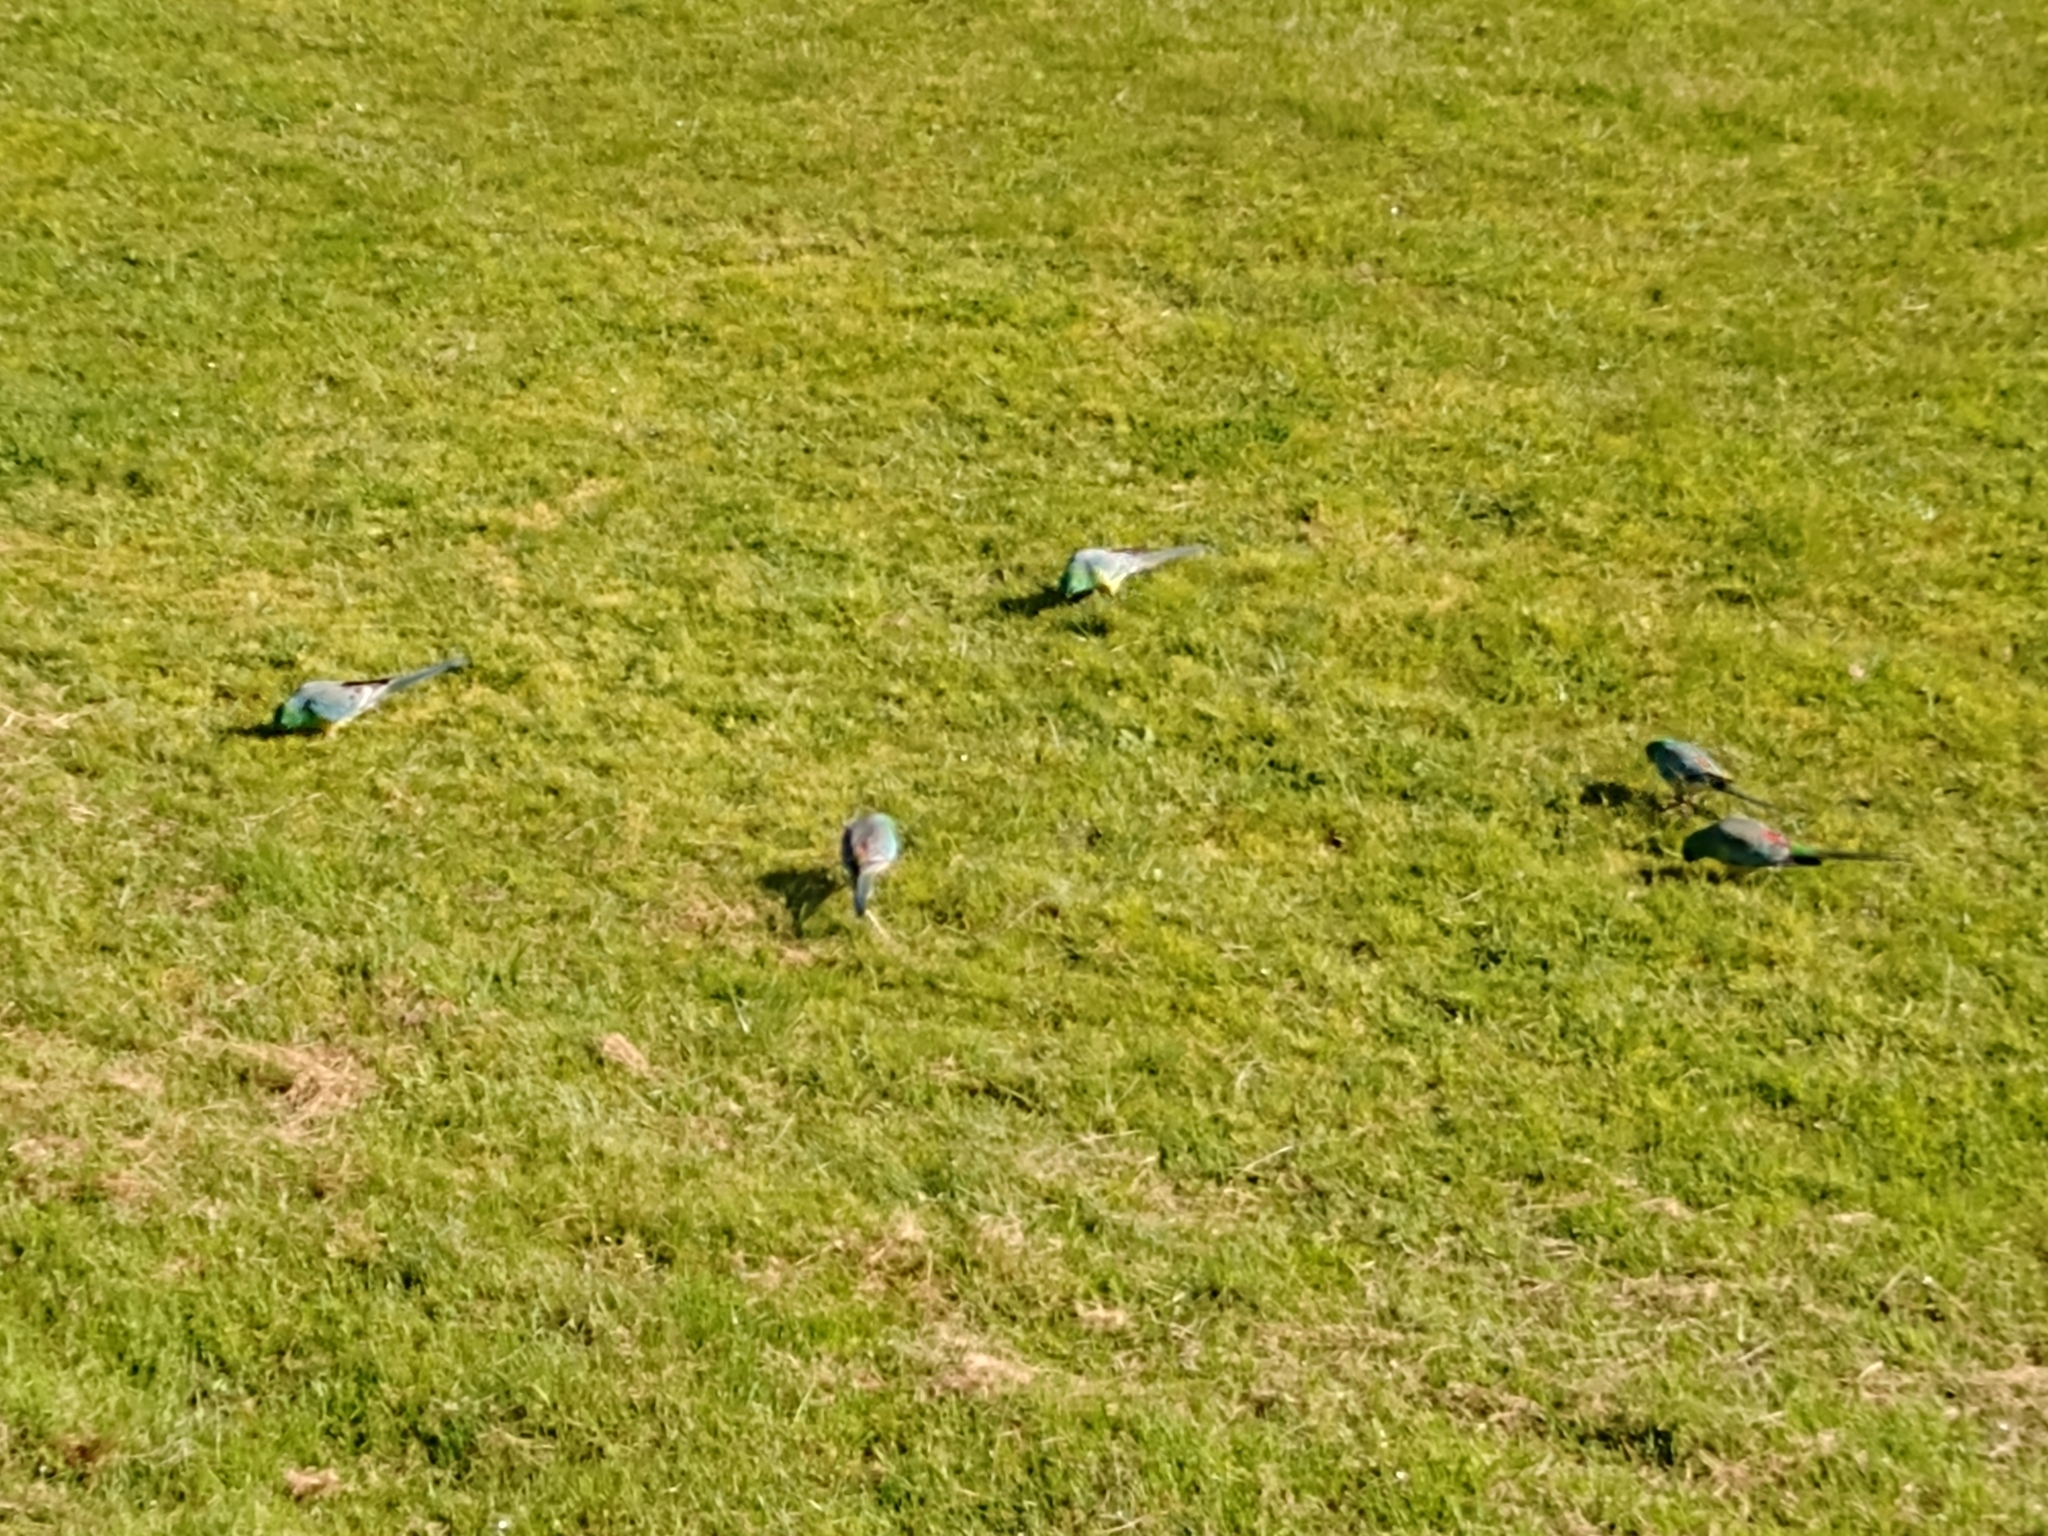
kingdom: Animalia
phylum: Chordata
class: Aves
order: Psittaciformes
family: Psittacidae
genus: Psephotus
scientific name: Psephotus haematonotus
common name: Red-rumped parrot
